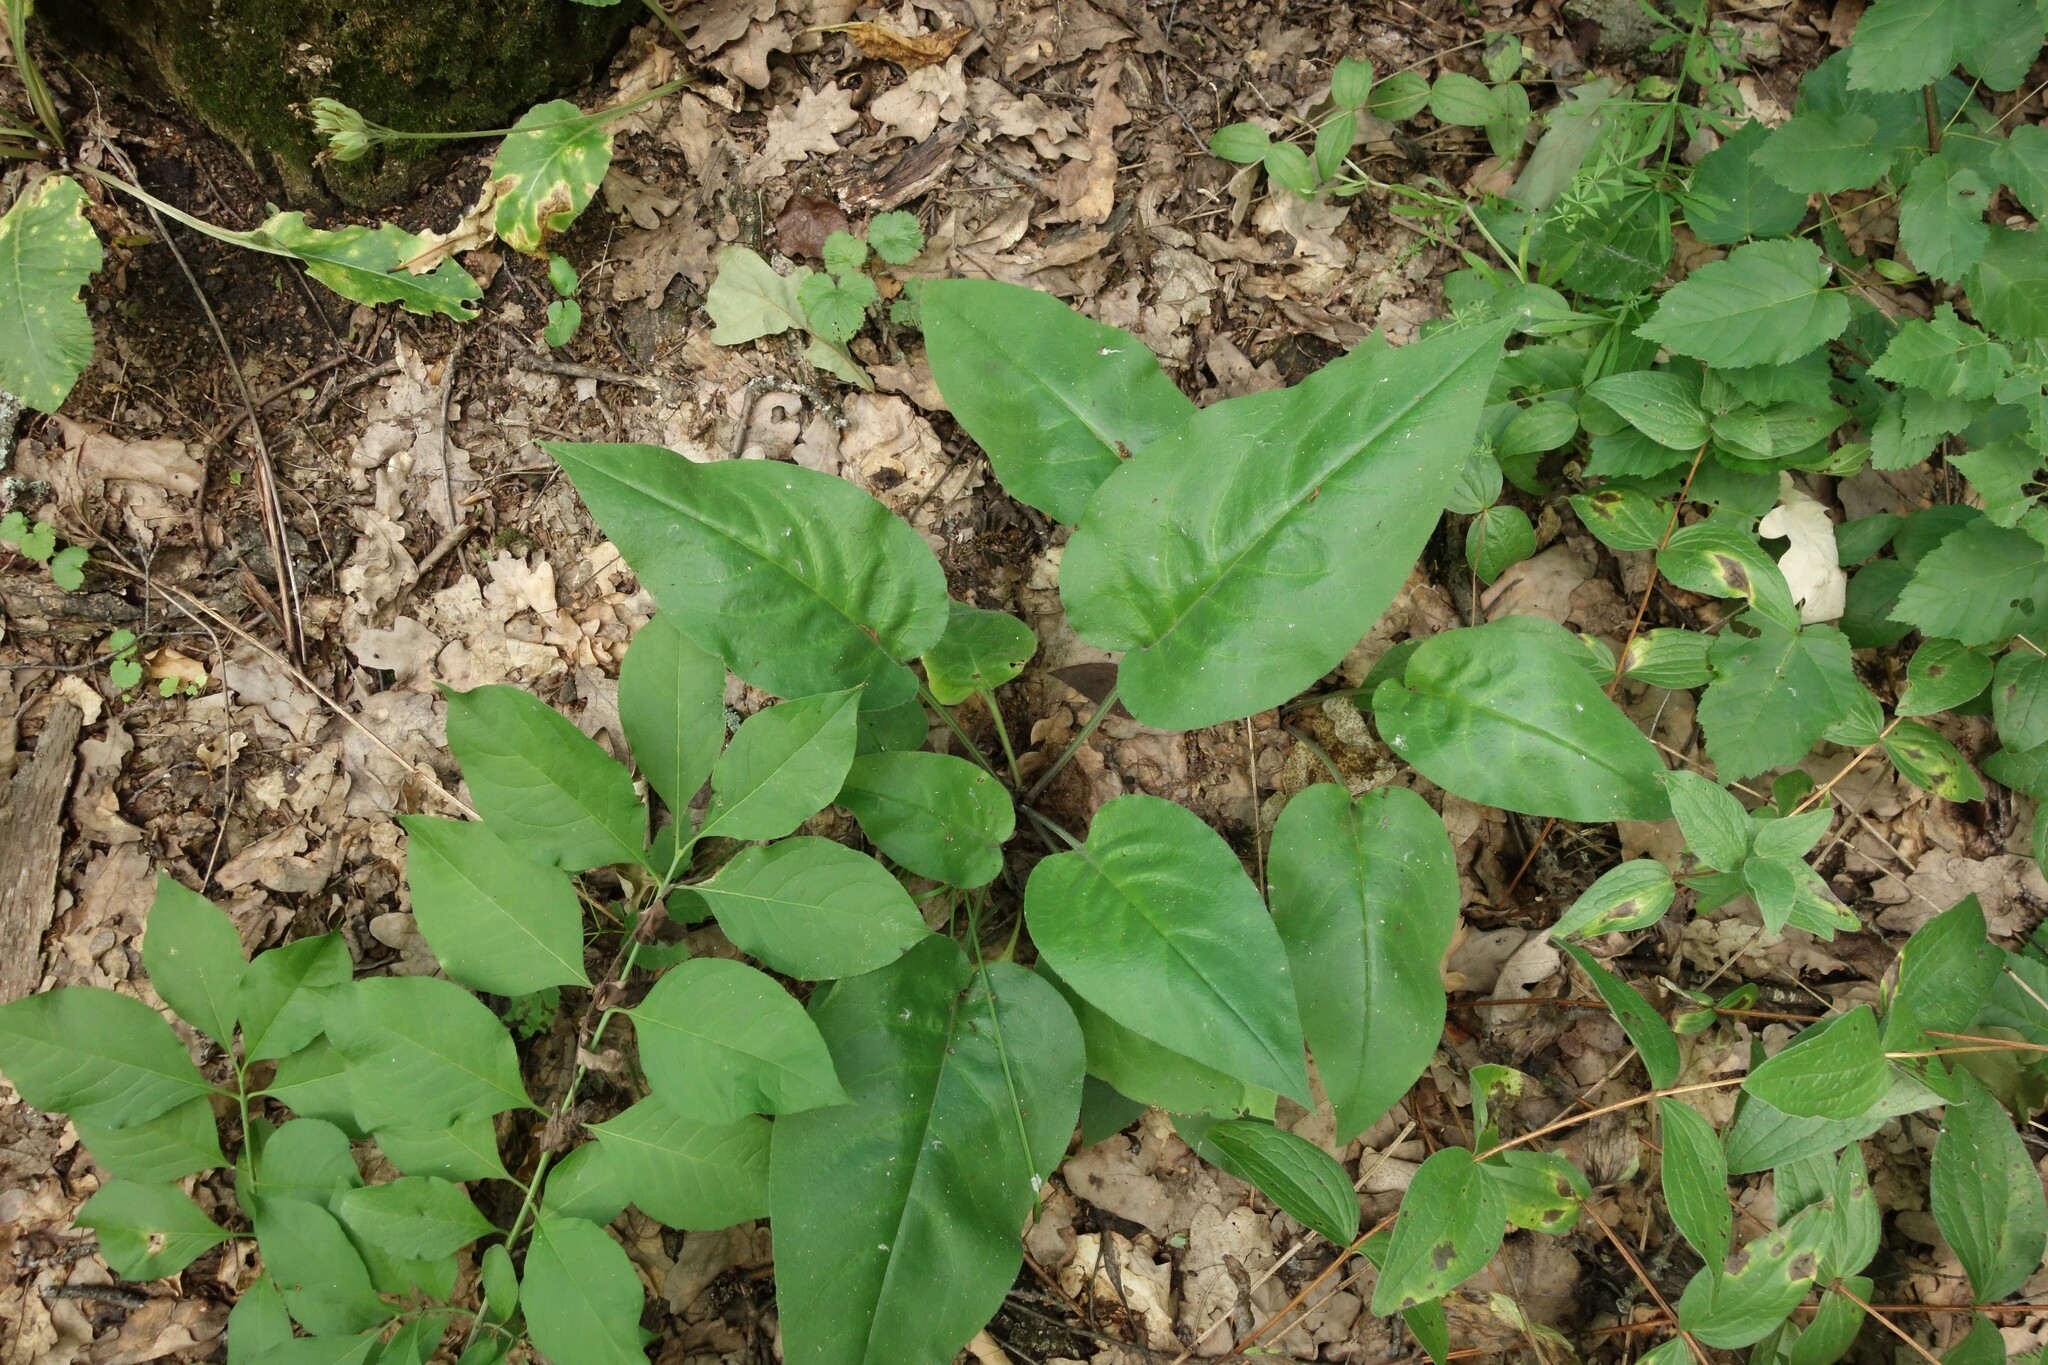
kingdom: Plantae
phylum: Tracheophyta
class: Magnoliopsida
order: Boraginales
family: Boraginaceae
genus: Pulmonaria
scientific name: Pulmonaria obscura
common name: Suffolk lungwort
